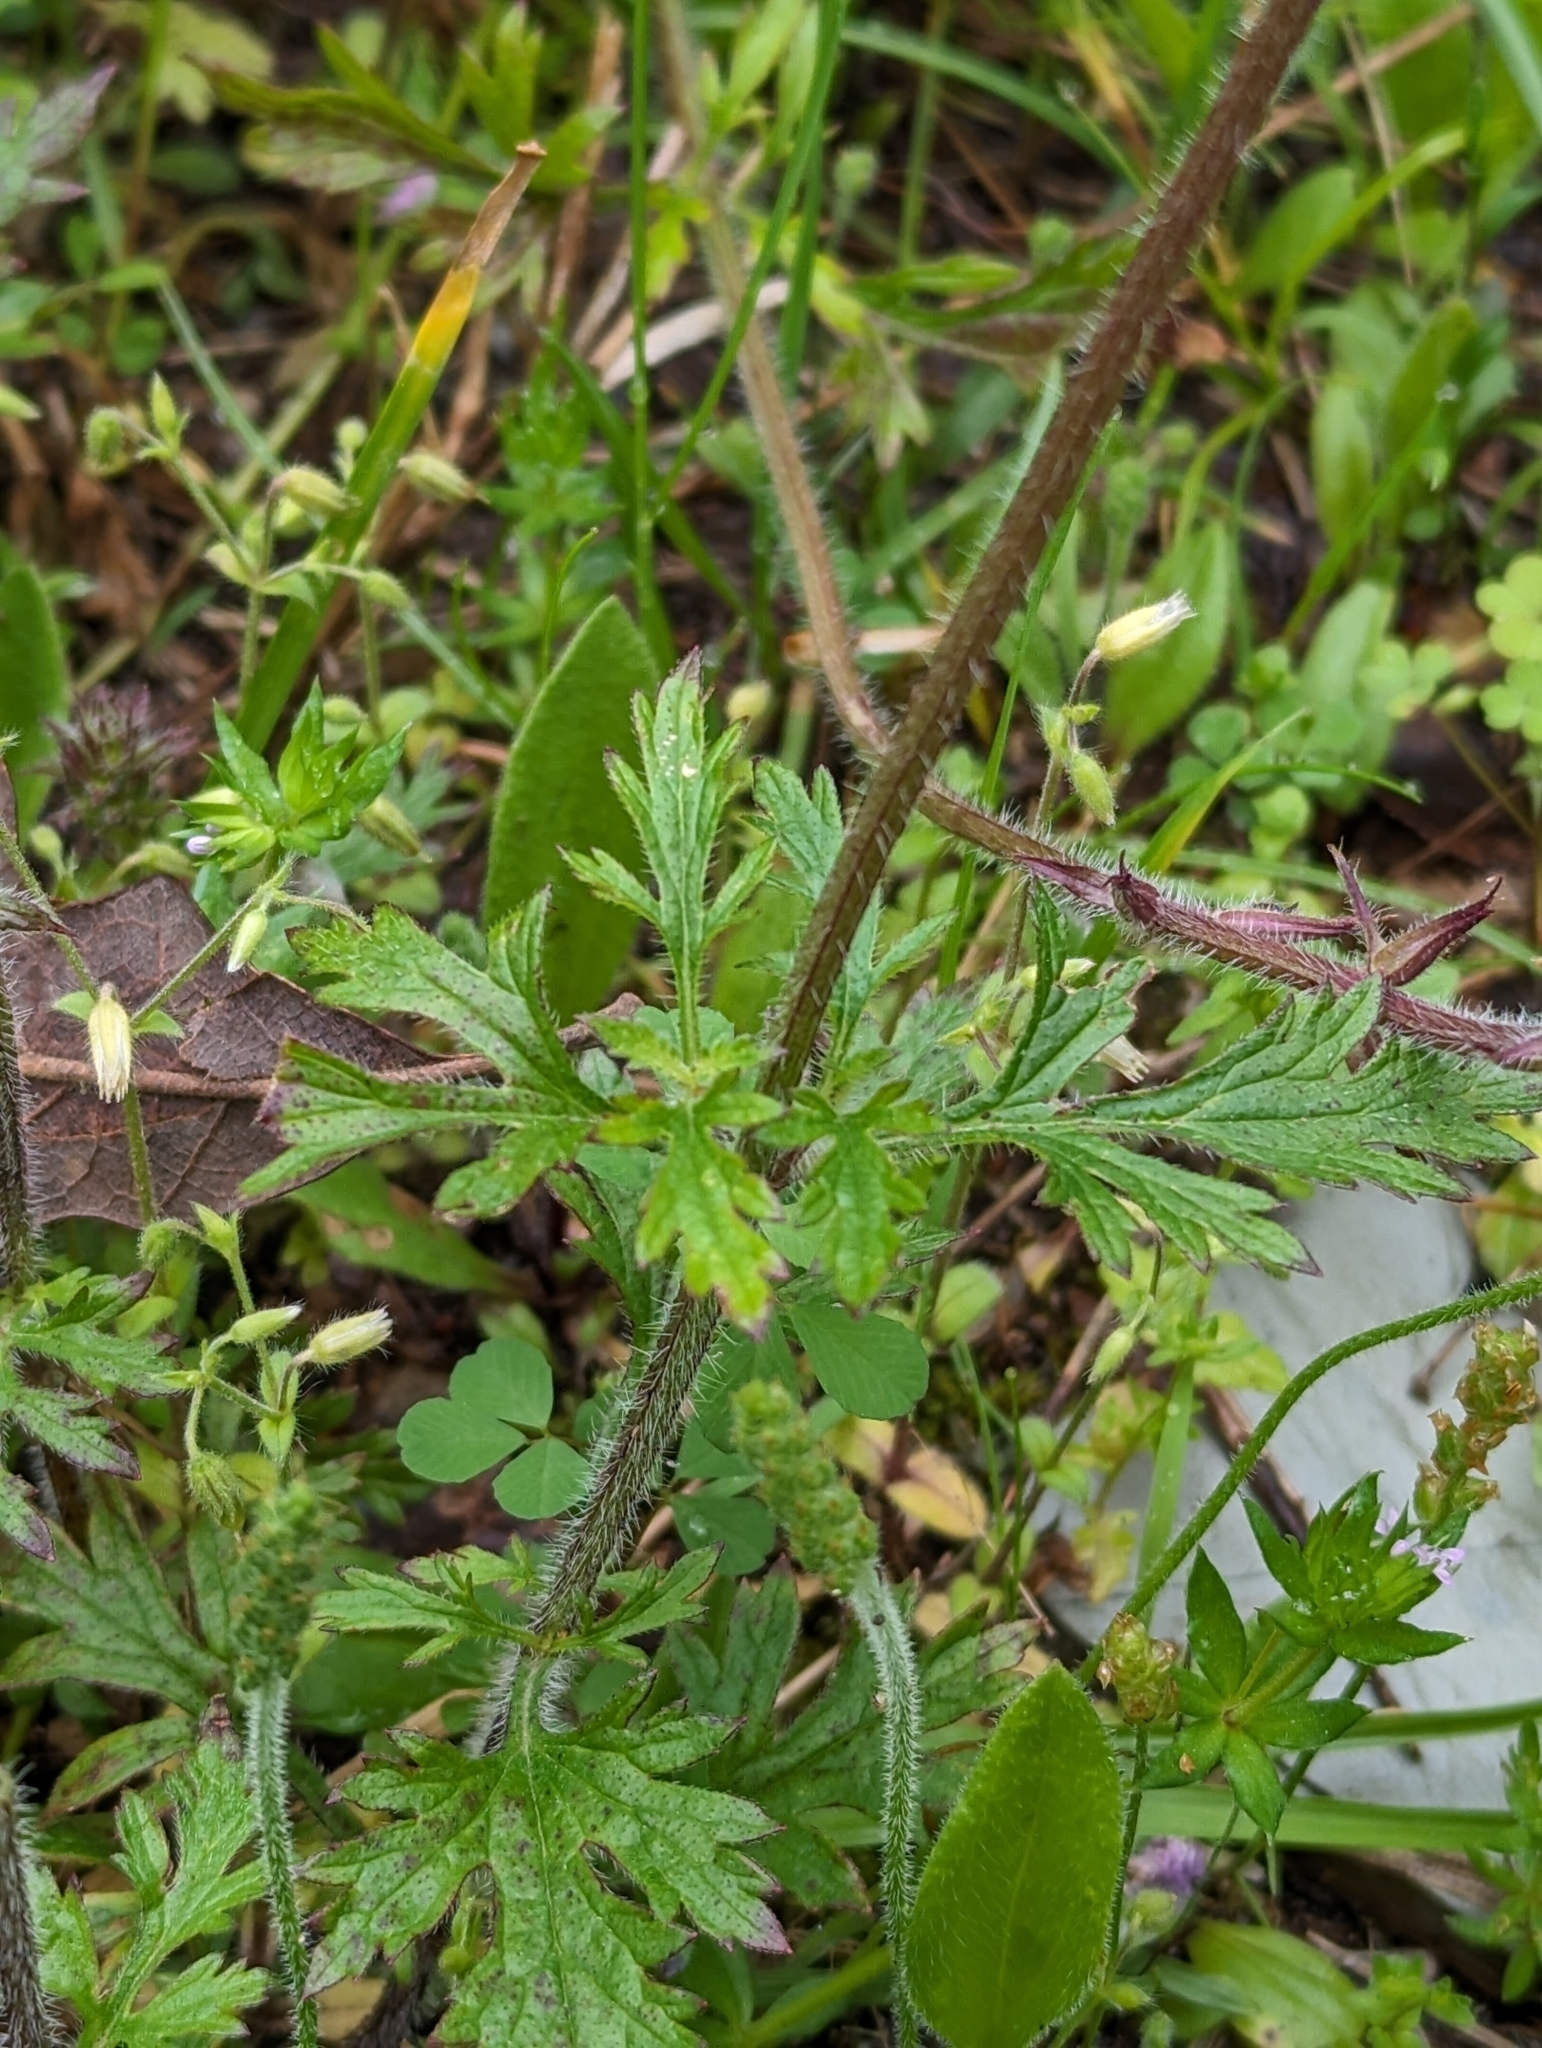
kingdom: Plantae
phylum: Tracheophyta
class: Magnoliopsida
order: Lamiales
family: Verbenaceae
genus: Verbena
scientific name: Verbena canadensis
